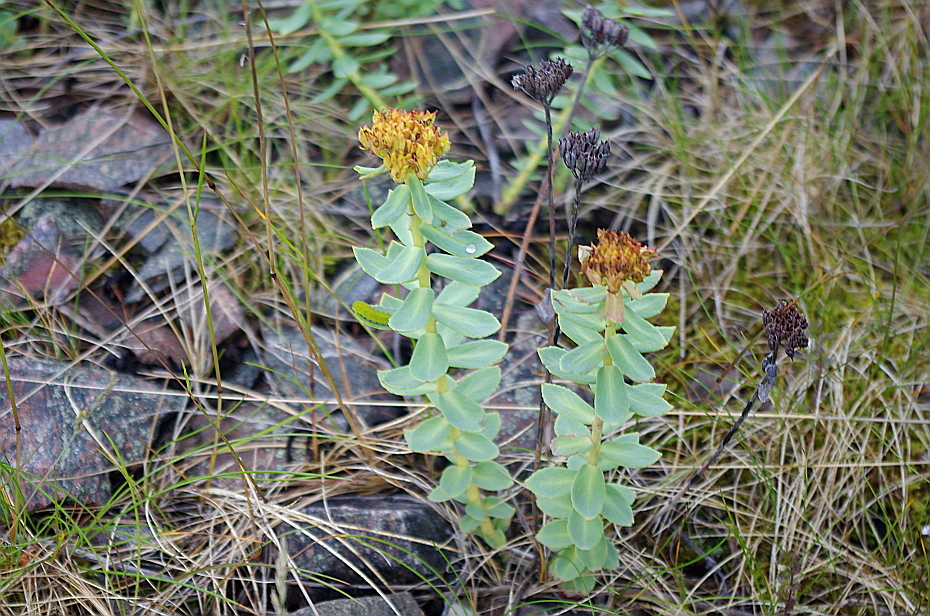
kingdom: Plantae
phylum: Tracheophyta
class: Magnoliopsida
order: Saxifragales
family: Crassulaceae
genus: Rhodiola
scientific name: Rhodiola rosea
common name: Roseroot
